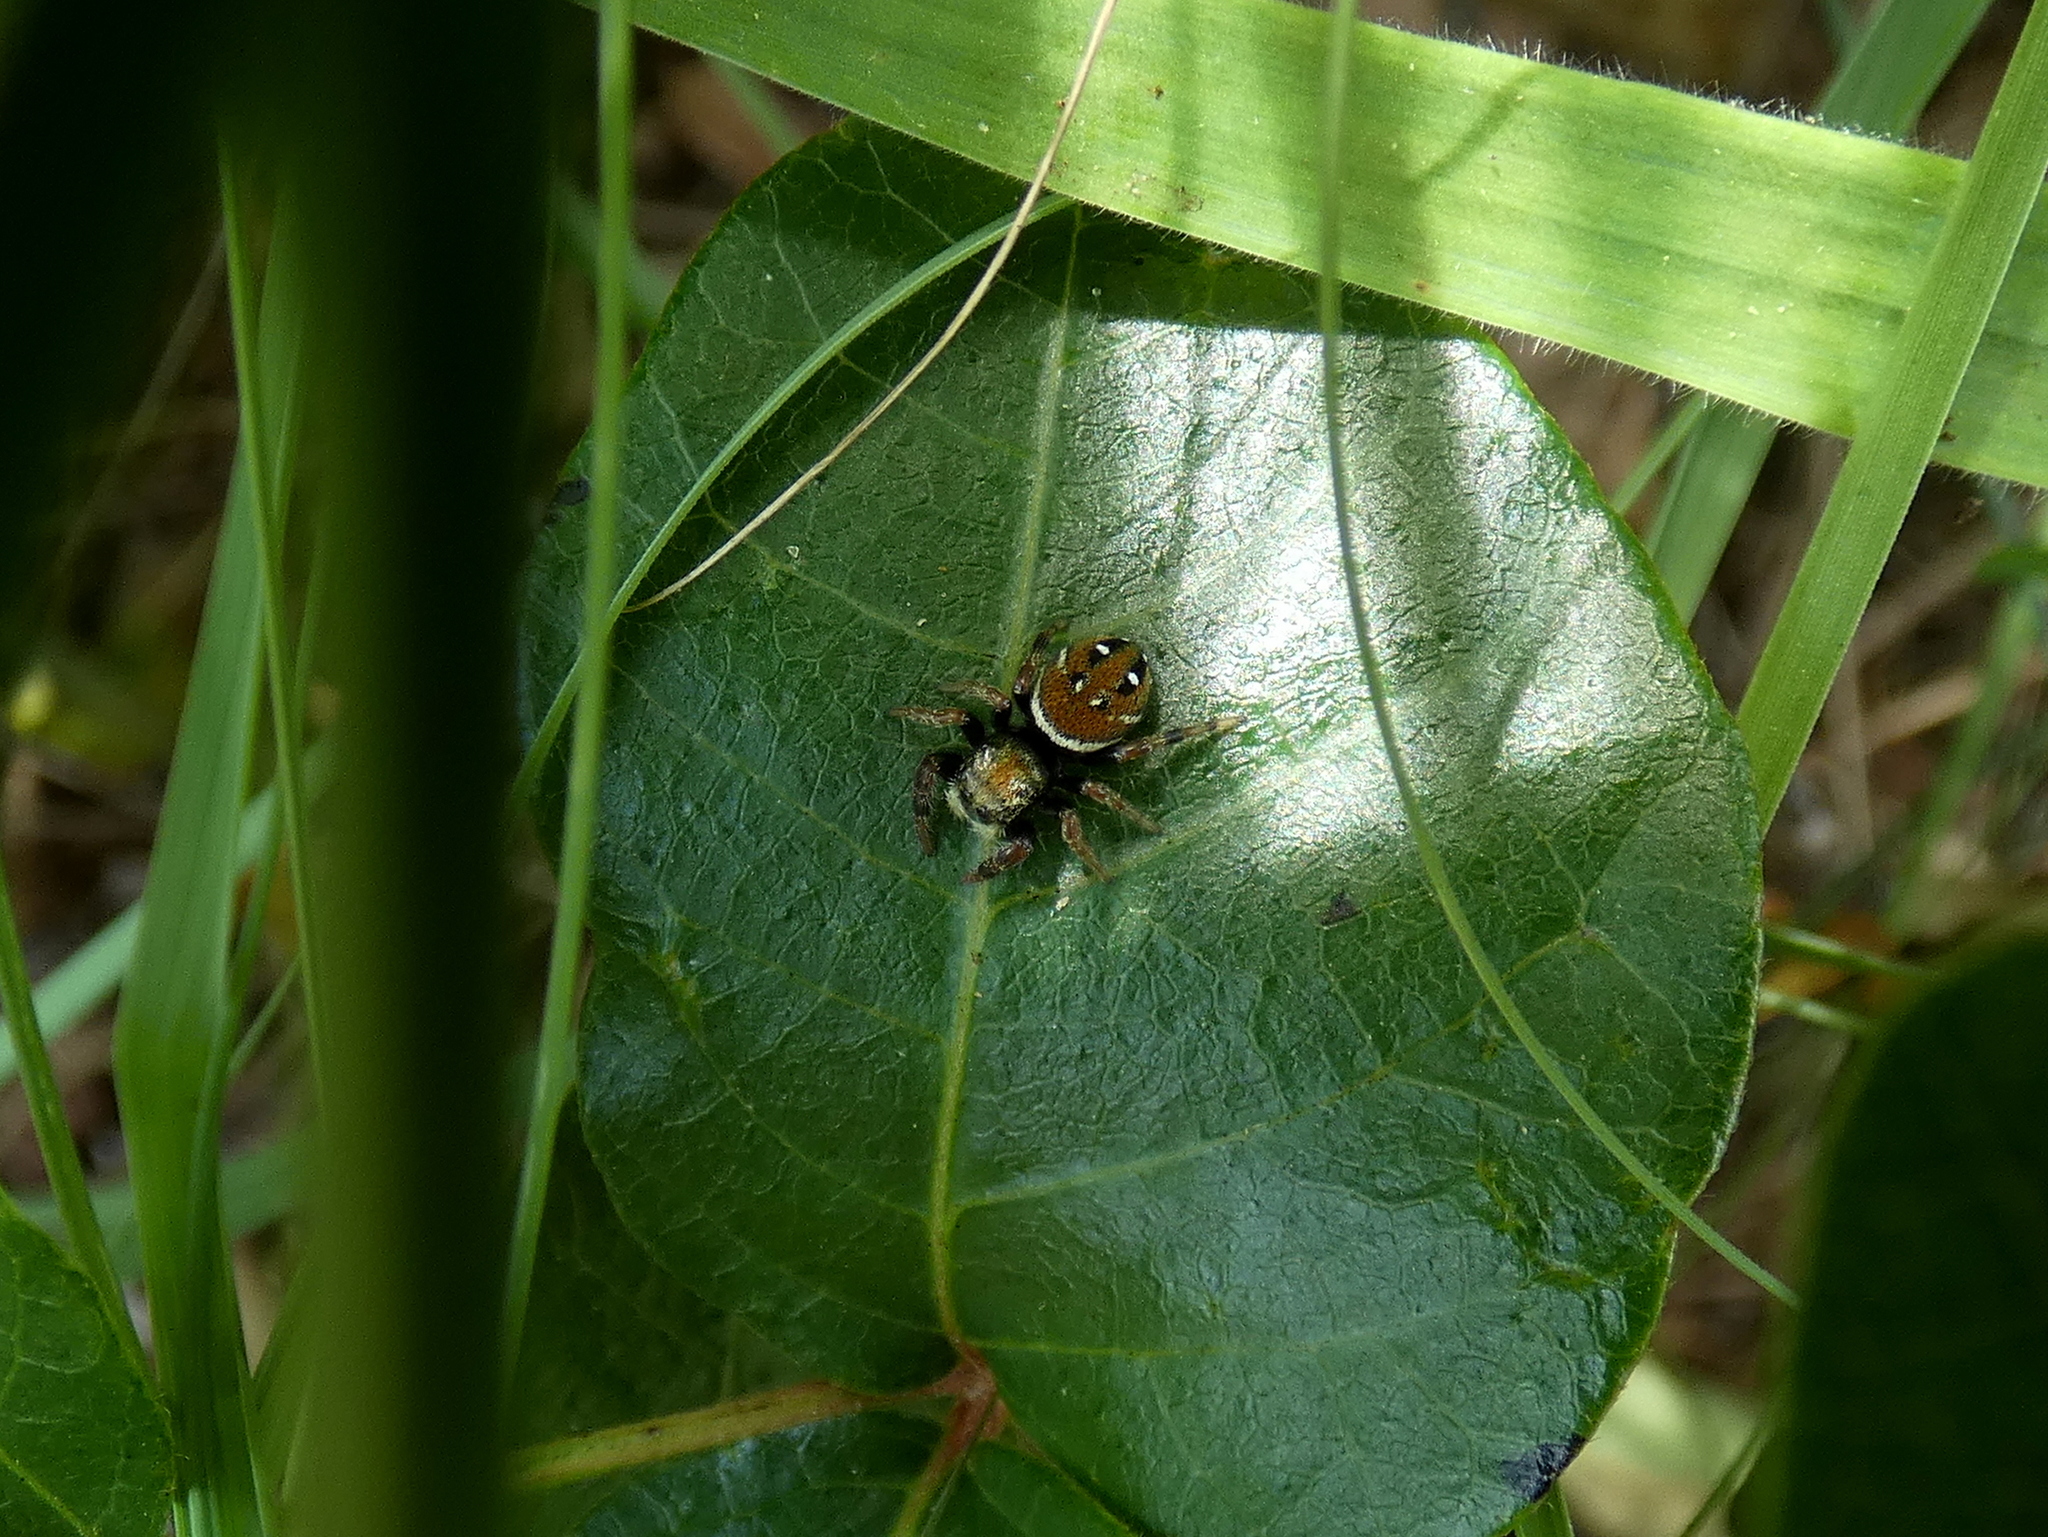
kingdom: Animalia
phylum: Arthropoda
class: Arachnida
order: Araneae
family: Salticidae
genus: Phidippus
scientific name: Phidippus whitmani
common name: Whitman's jumping spider
